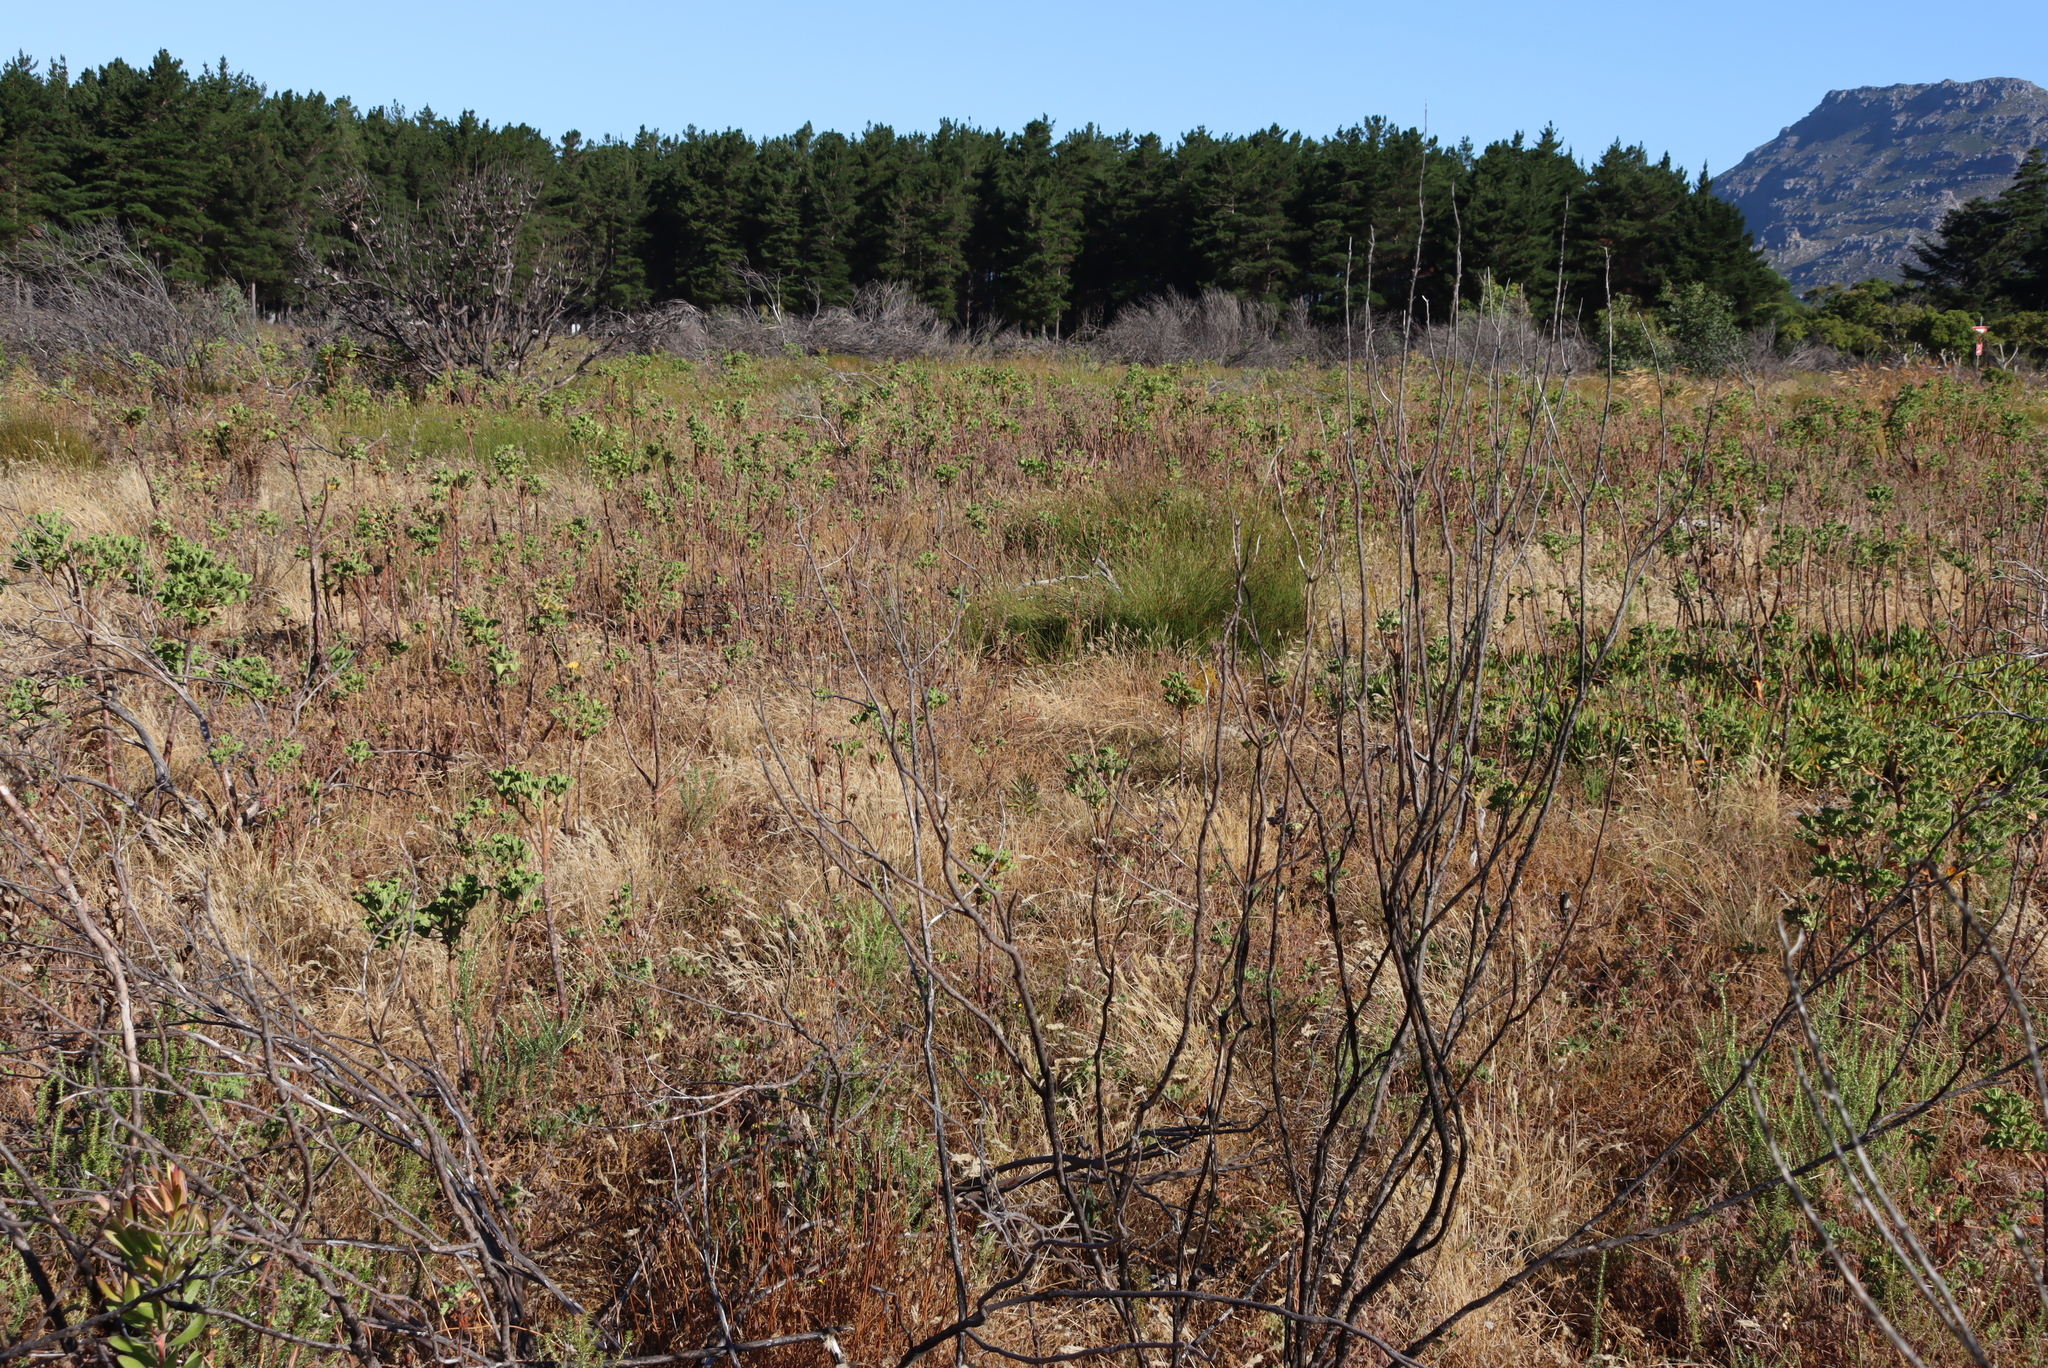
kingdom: Plantae
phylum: Tracheophyta
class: Magnoliopsida
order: Geraniales
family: Geraniaceae
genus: Pelargonium
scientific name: Pelargonium cucullatum
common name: Tree pelargonium
